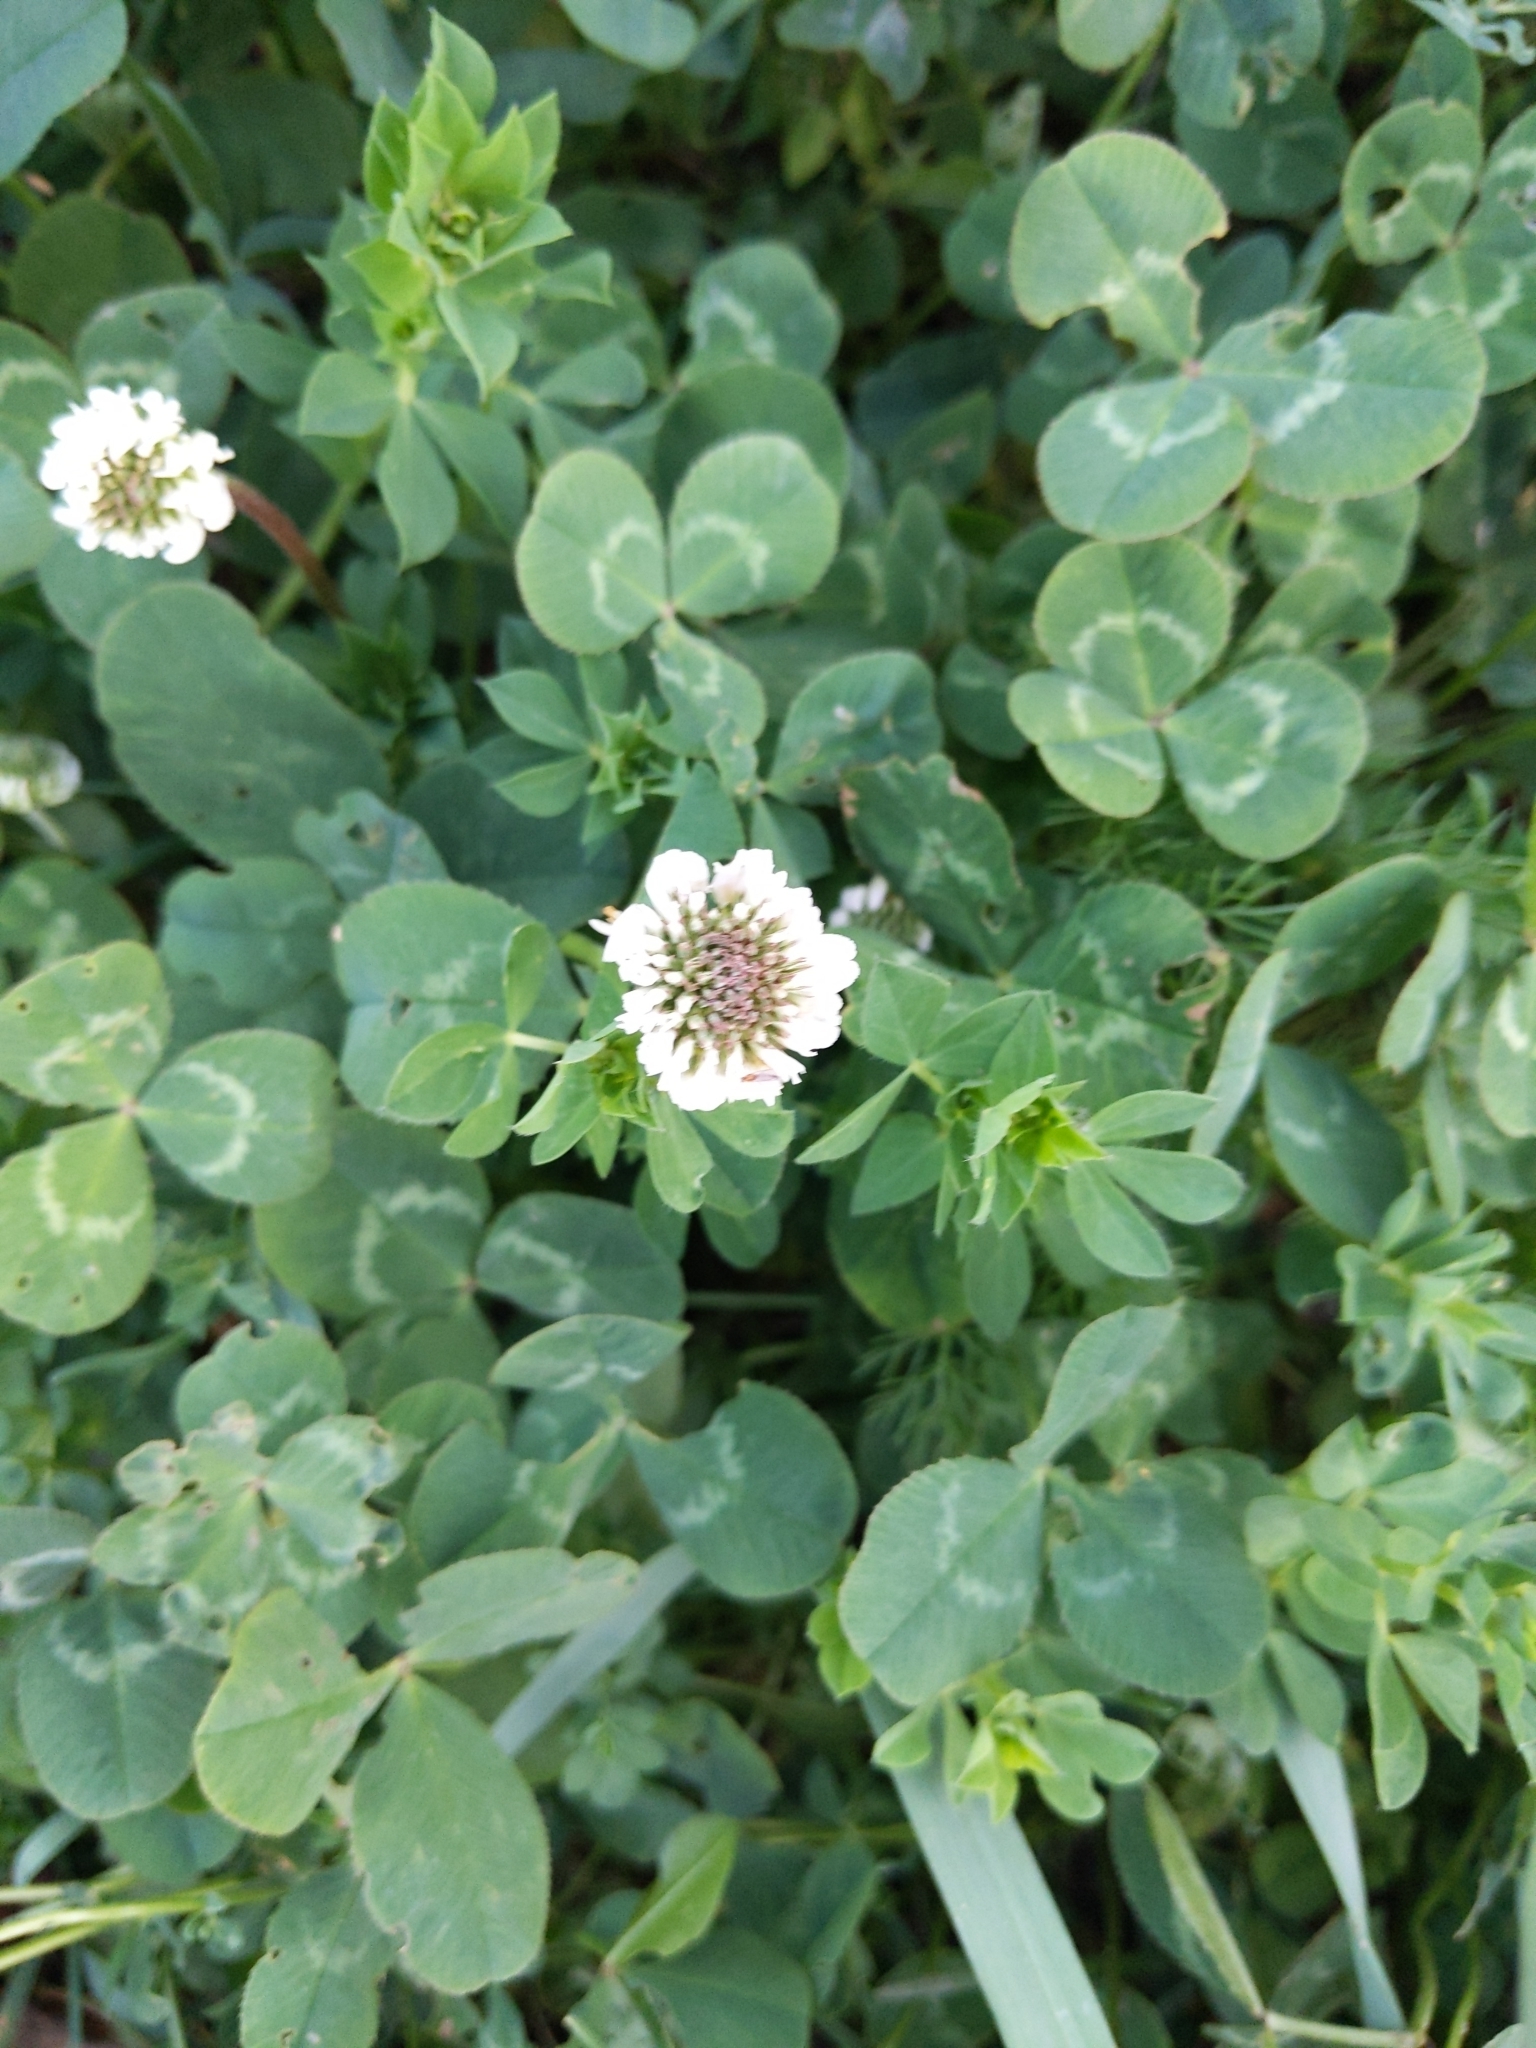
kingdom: Plantae
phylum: Tracheophyta
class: Magnoliopsida
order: Fabales
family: Fabaceae
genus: Trifolium
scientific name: Trifolium repens
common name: White clover
